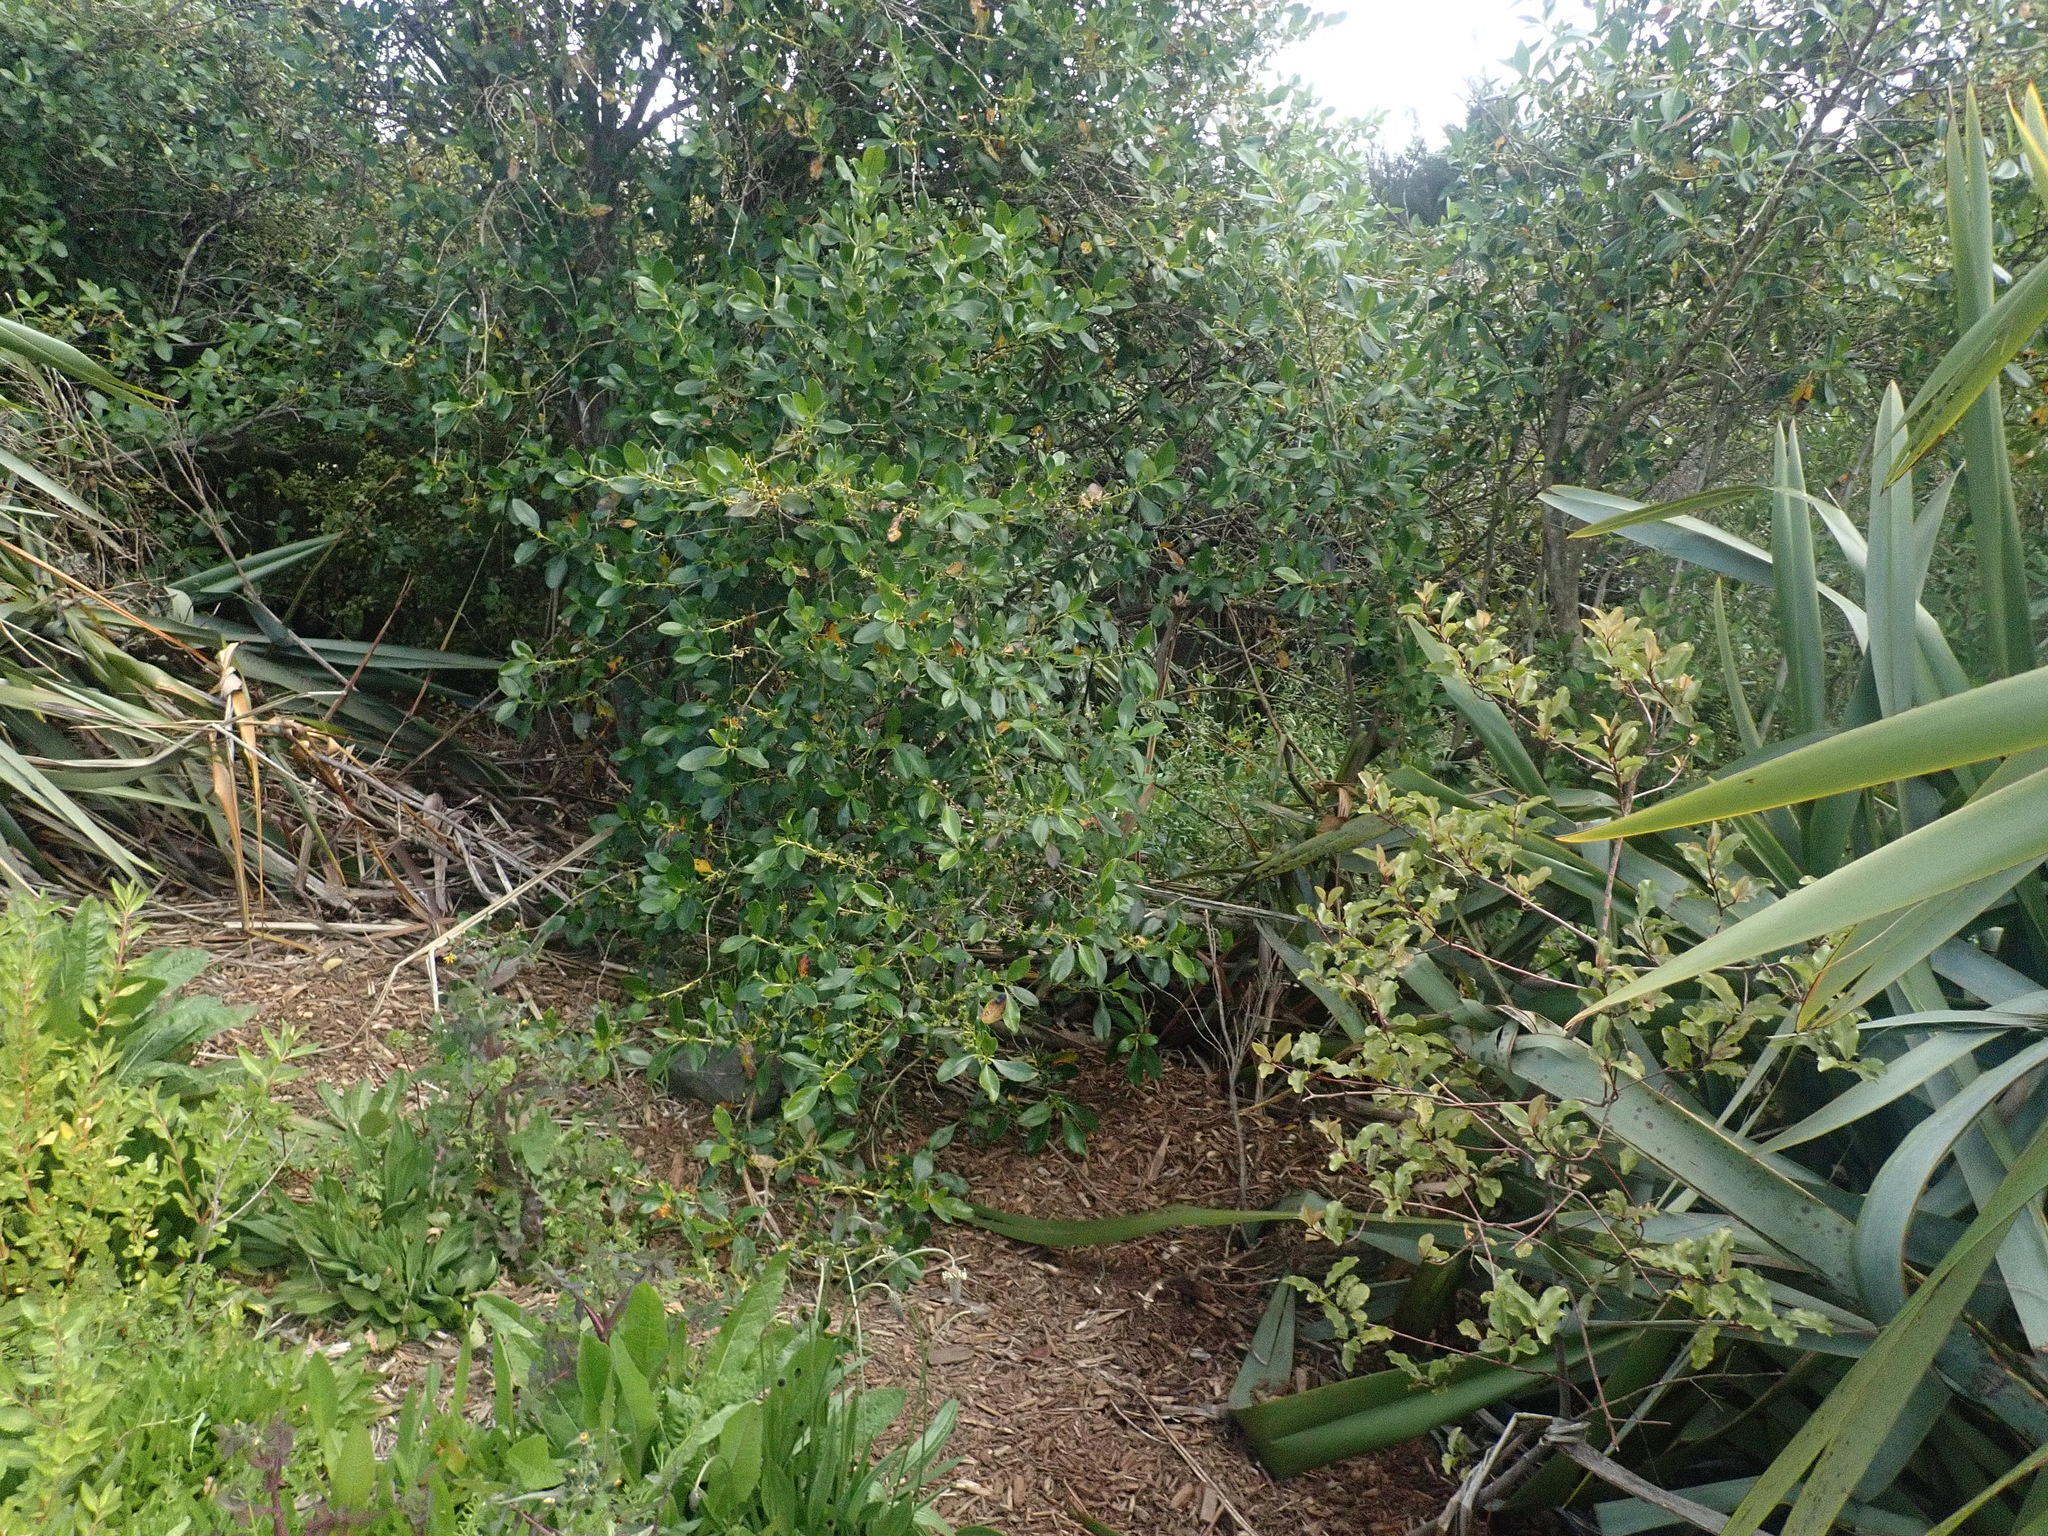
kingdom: Plantae
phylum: Tracheophyta
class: Magnoliopsida
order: Gentianales
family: Rubiaceae
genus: Coprosma
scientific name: Coprosma robusta
